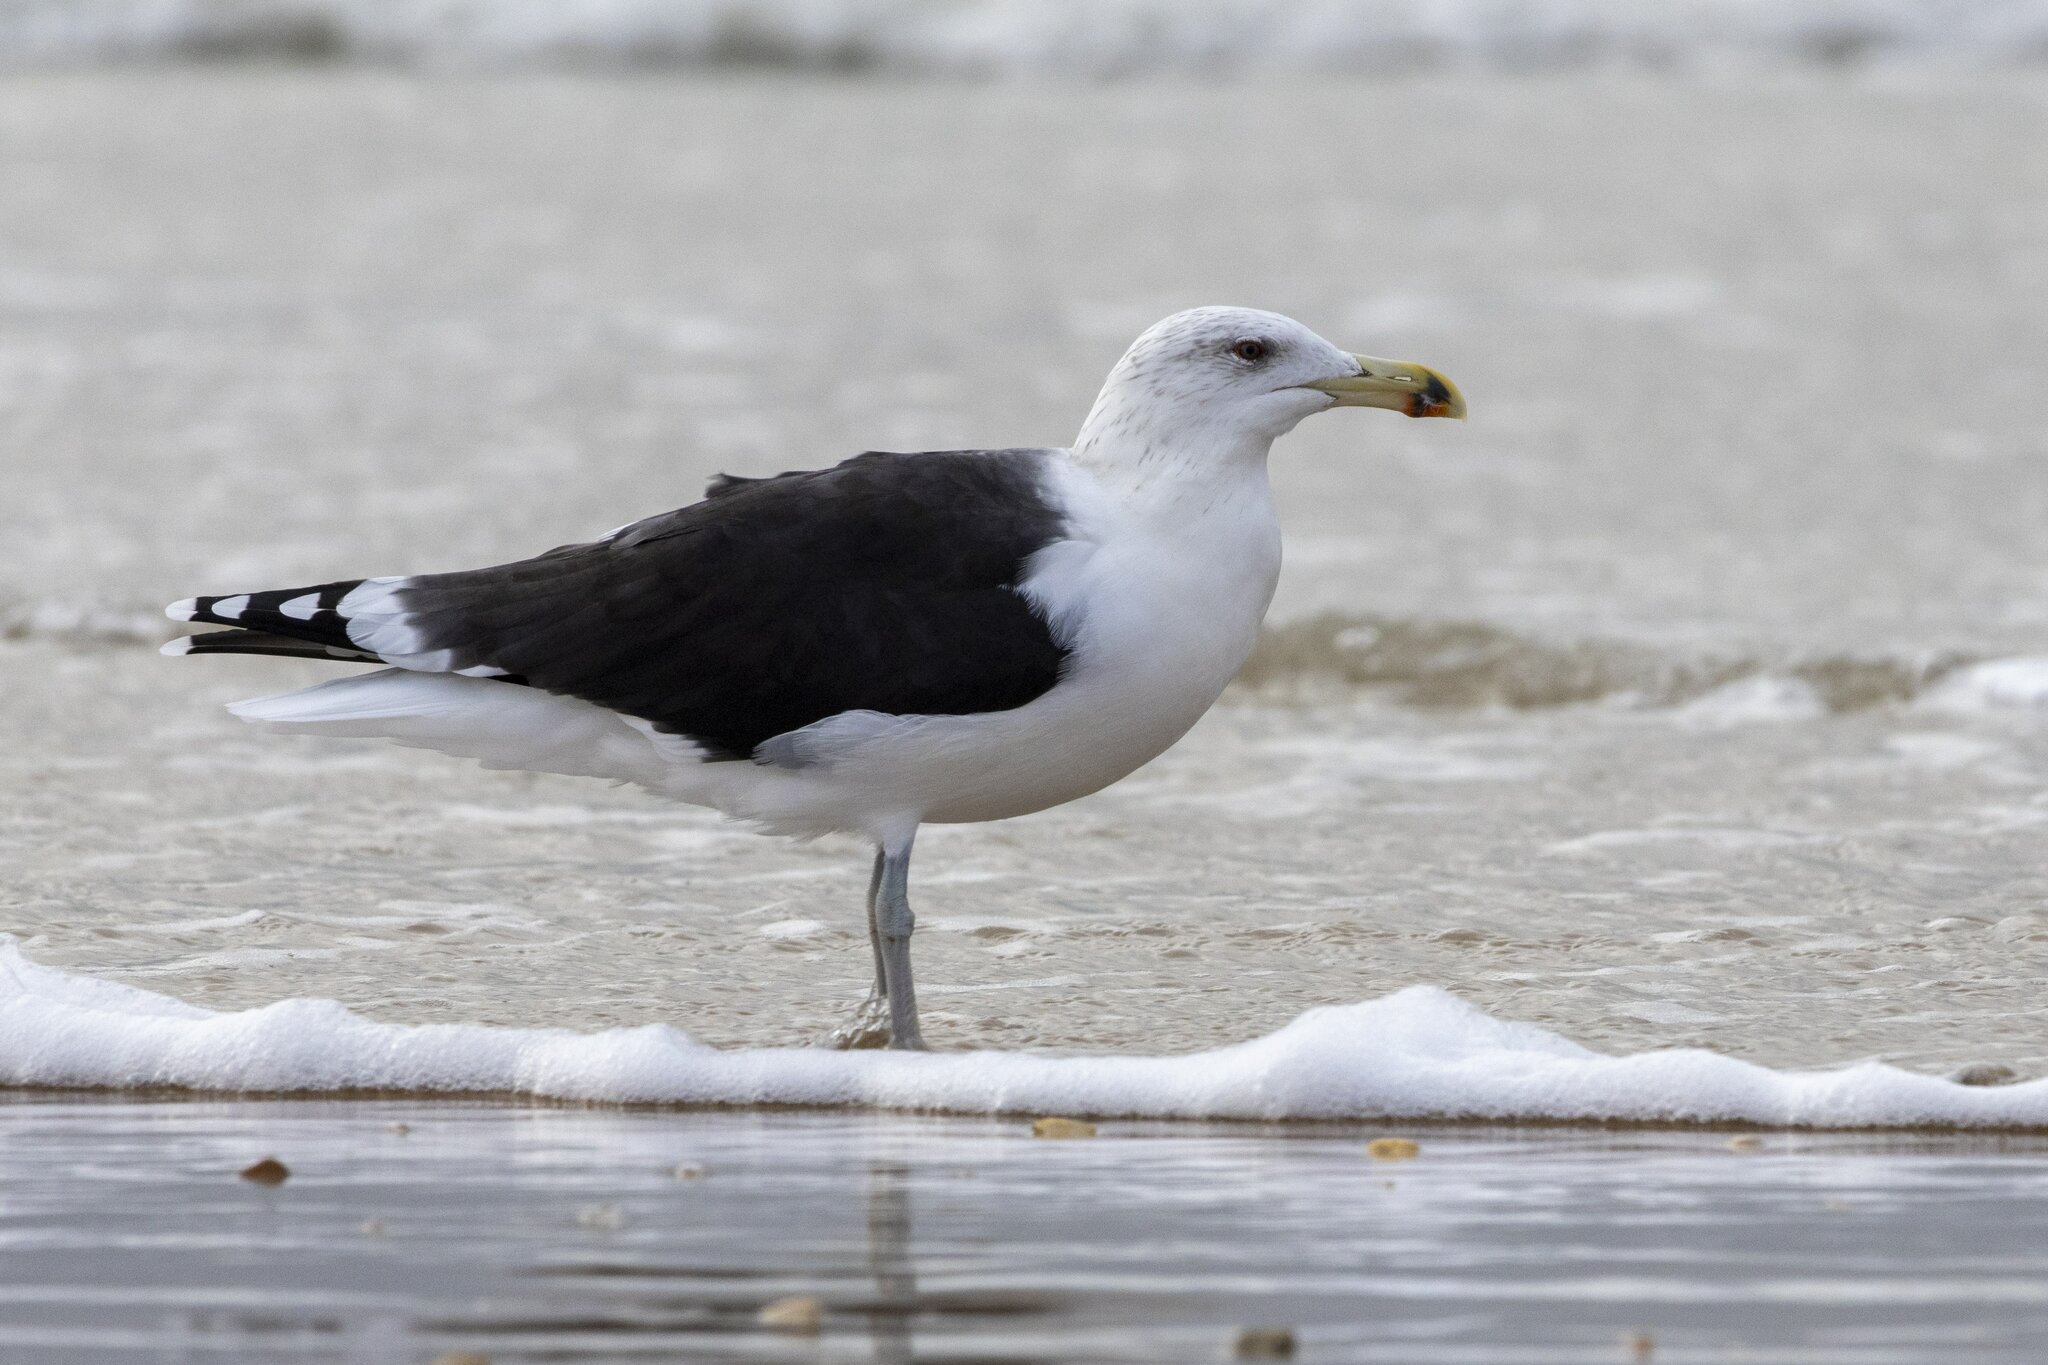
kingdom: Animalia
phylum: Chordata
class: Aves
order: Charadriiformes
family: Laridae
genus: Larus
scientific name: Larus marinus
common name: Great black-backed gull
